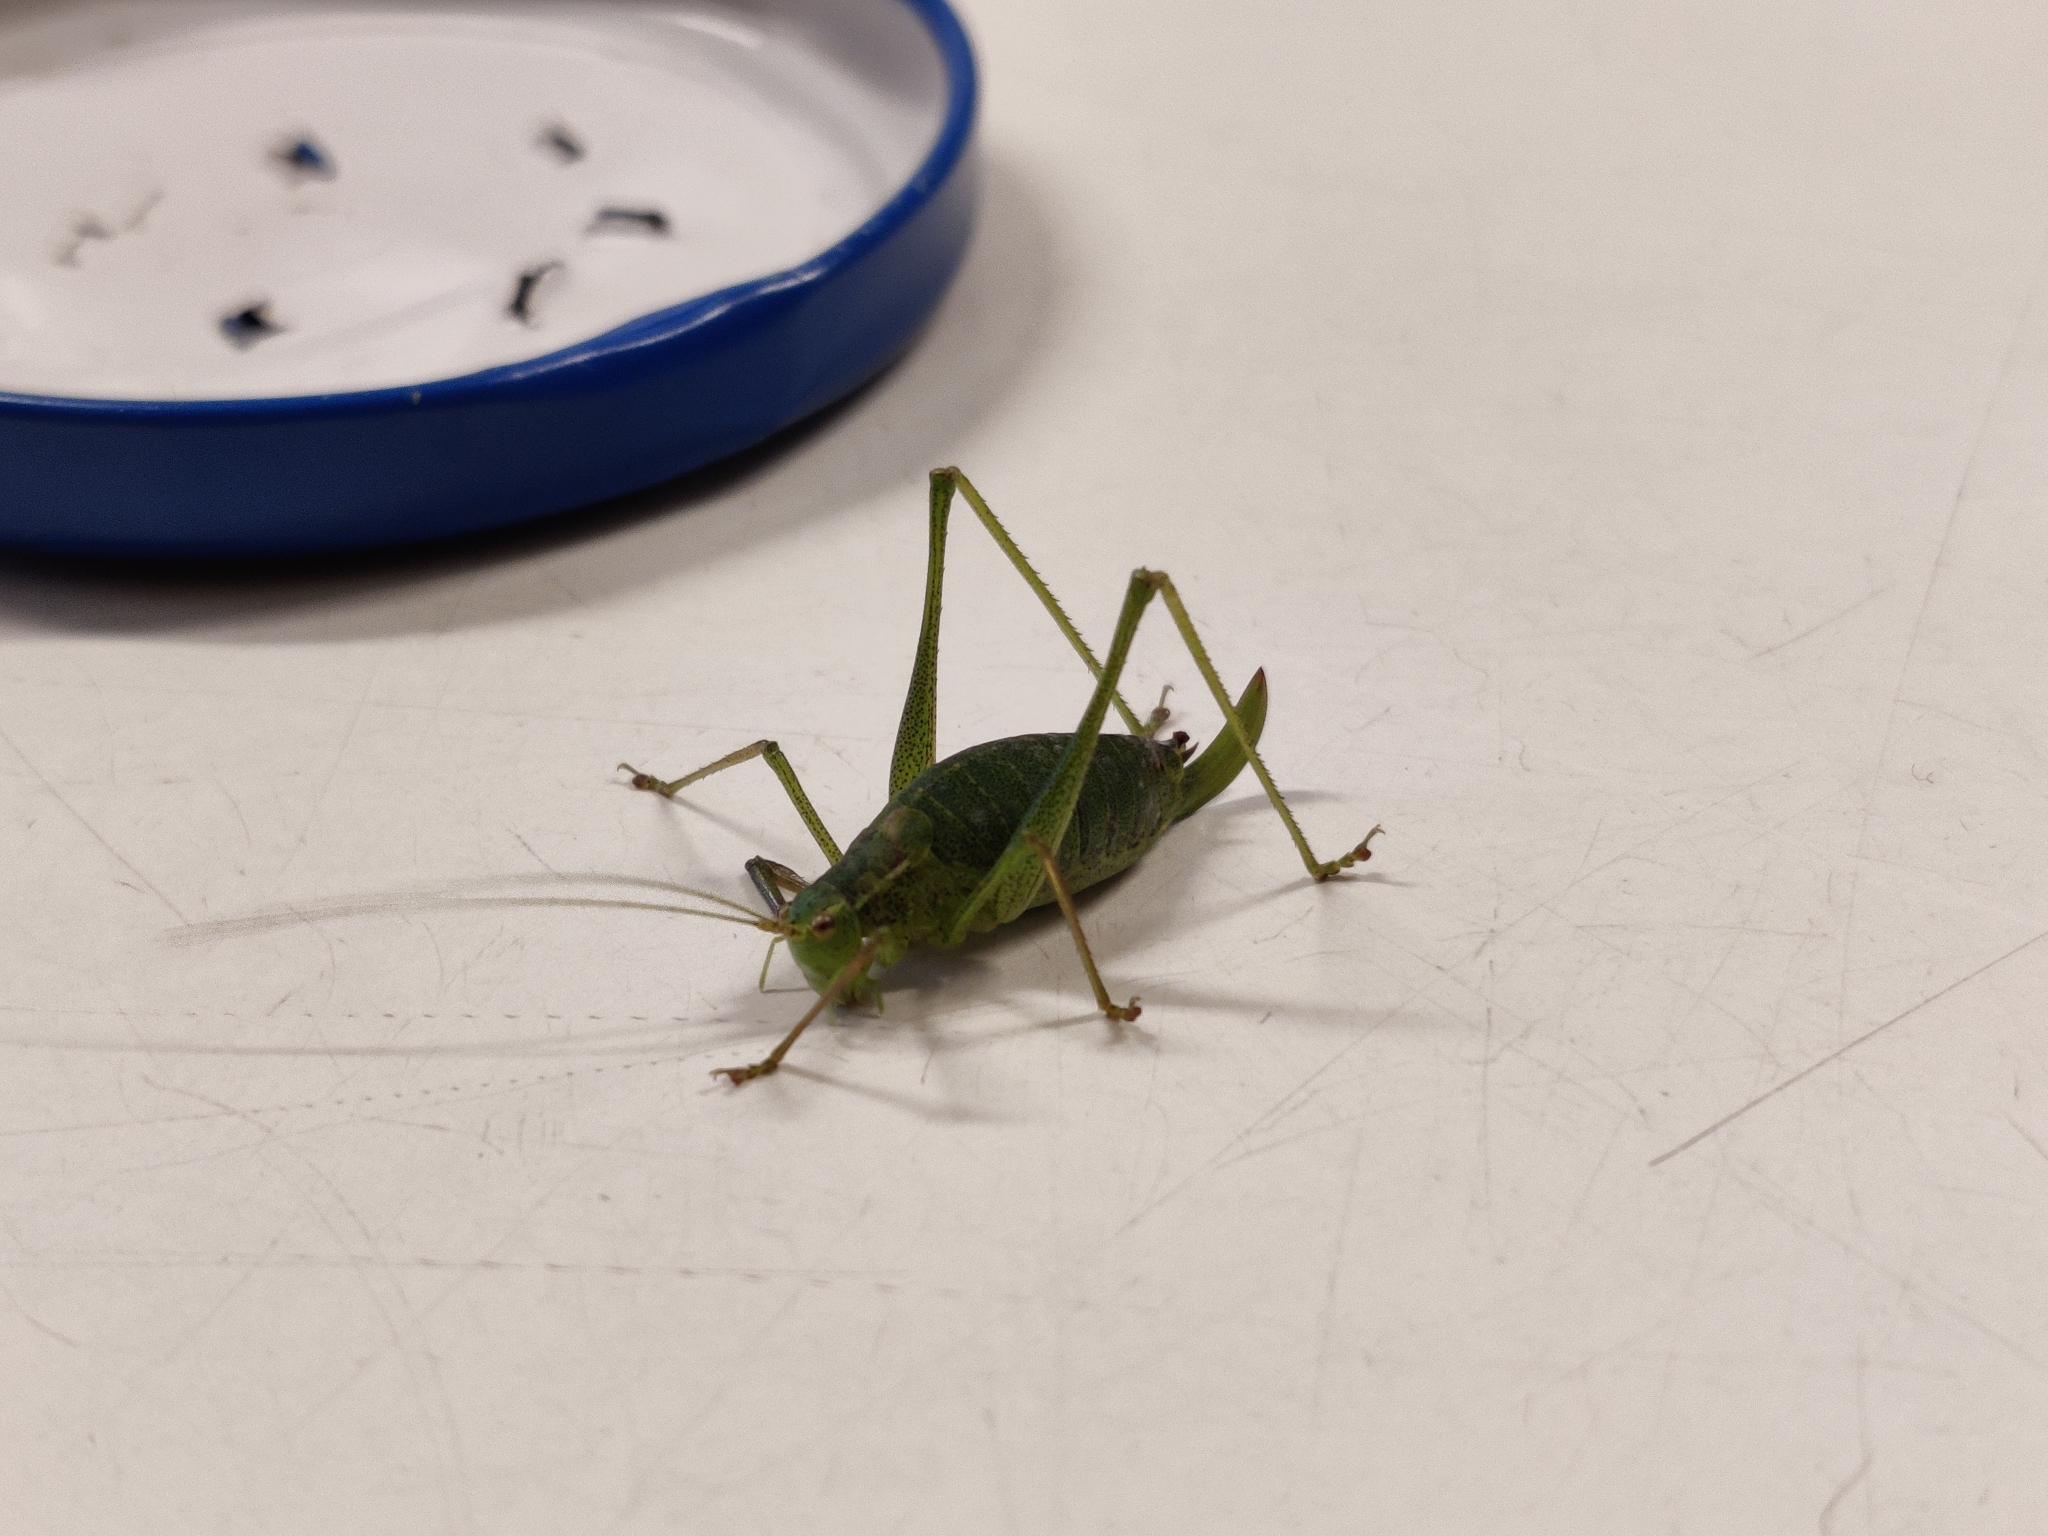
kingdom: Animalia
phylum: Arthropoda
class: Insecta
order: Orthoptera
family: Tettigoniidae
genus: Leptophyes
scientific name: Leptophyes punctatissima
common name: Speckled bush-cricket
